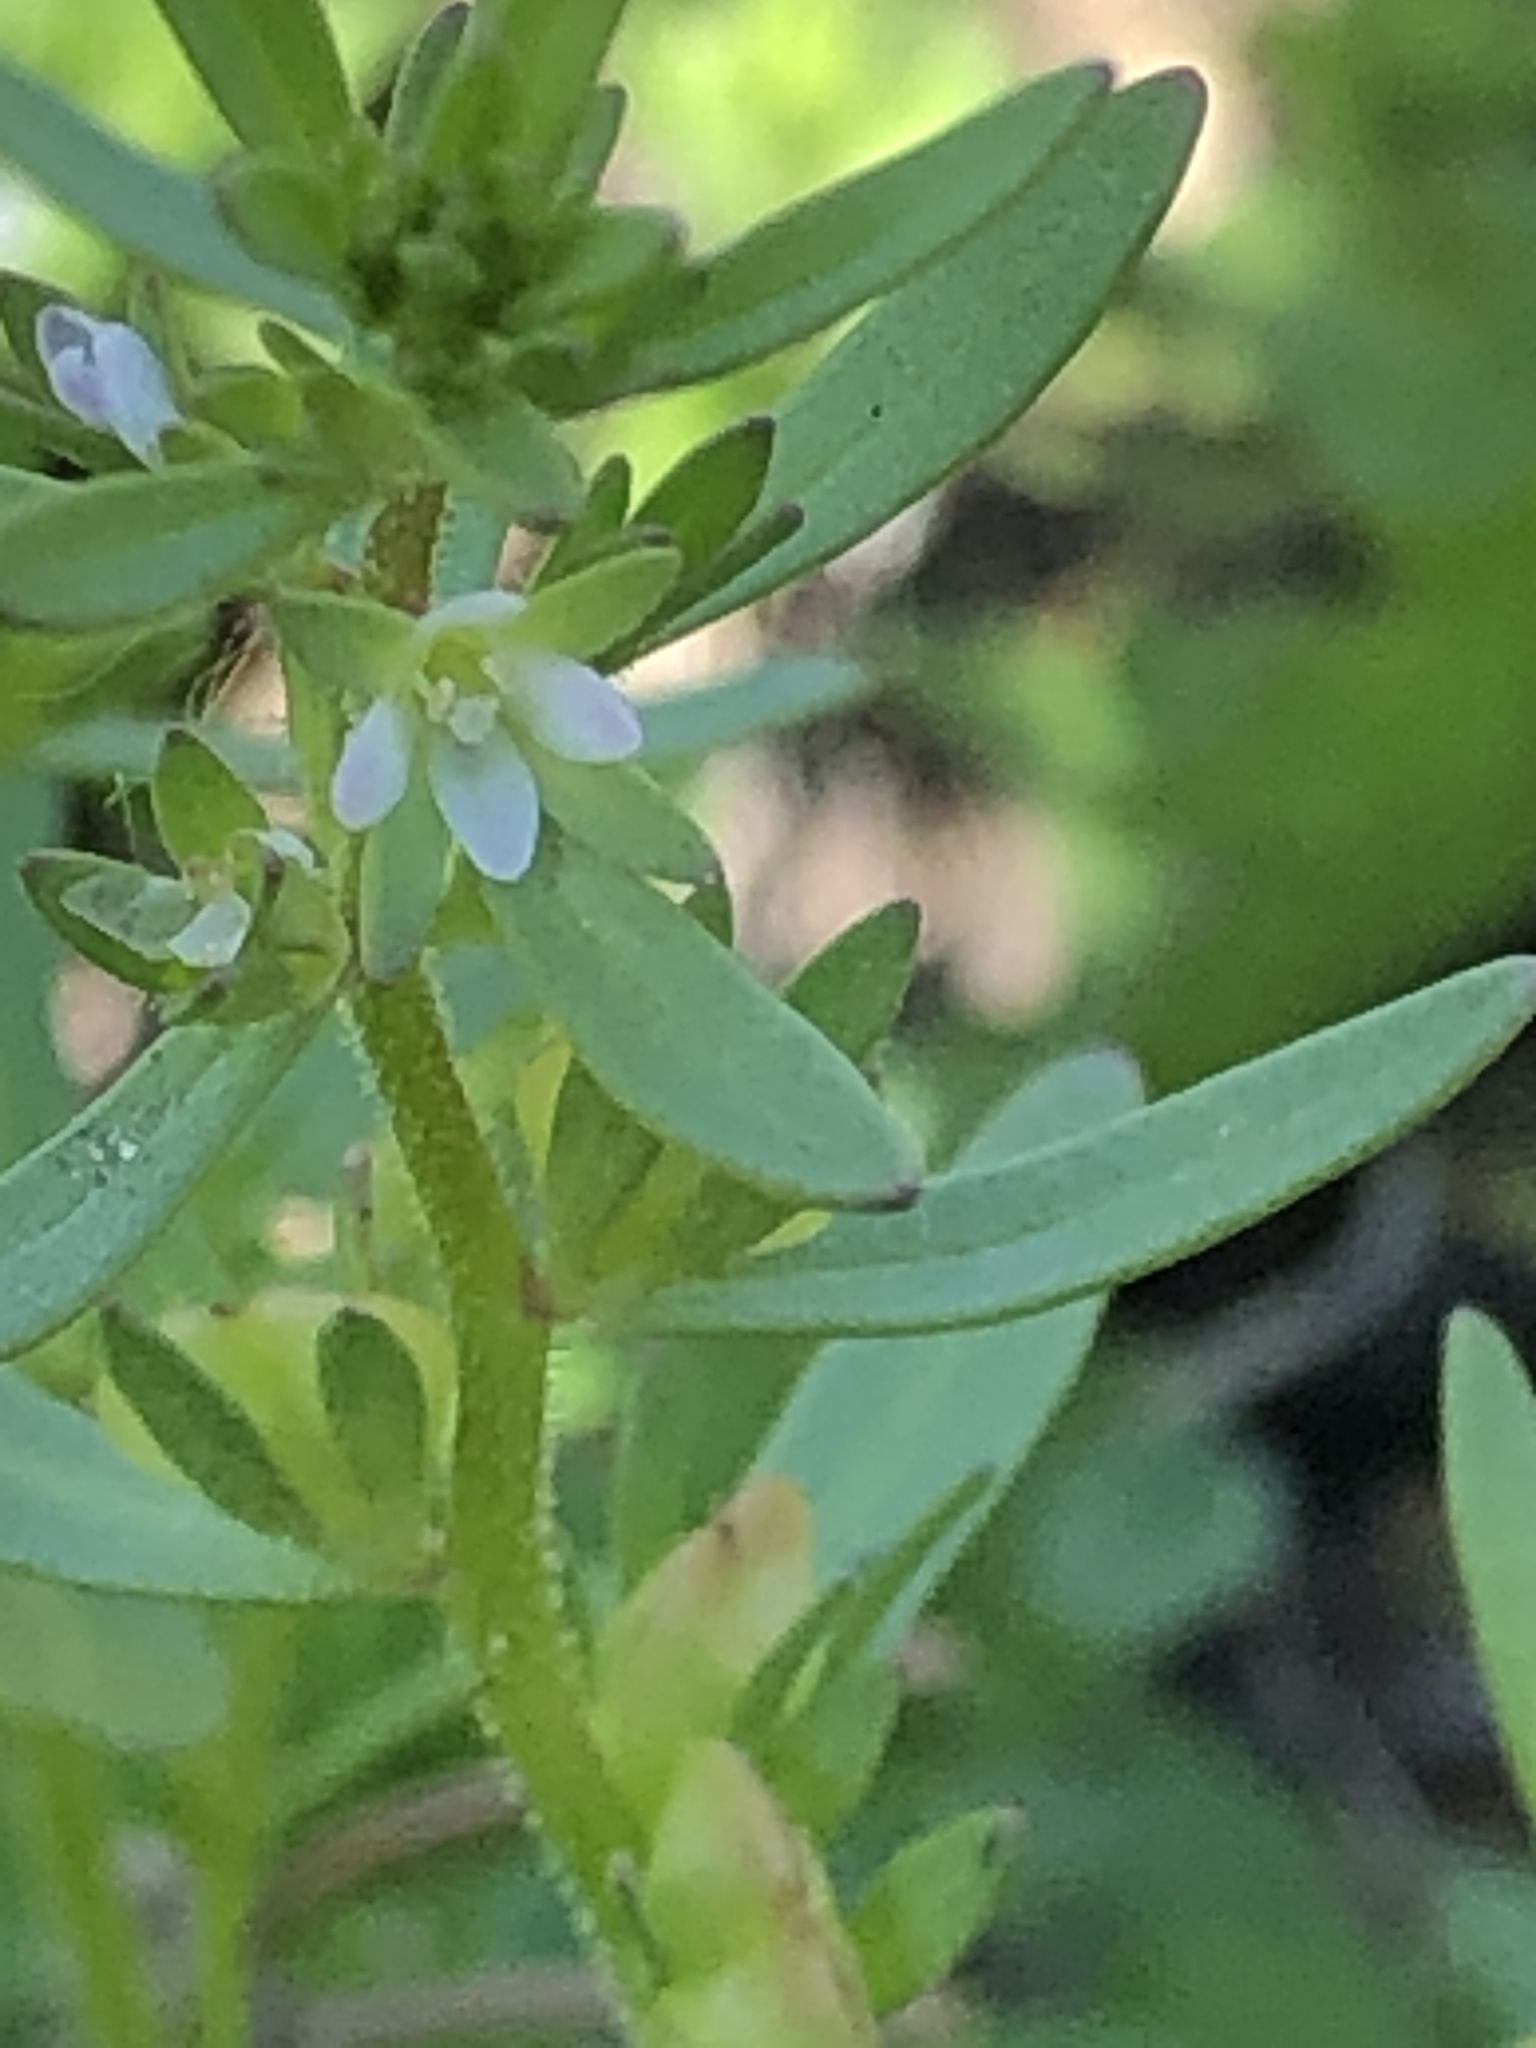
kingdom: Plantae
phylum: Tracheophyta
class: Magnoliopsida
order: Lamiales
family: Plantaginaceae
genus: Veronica
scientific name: Veronica peregrina
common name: Neckweed
